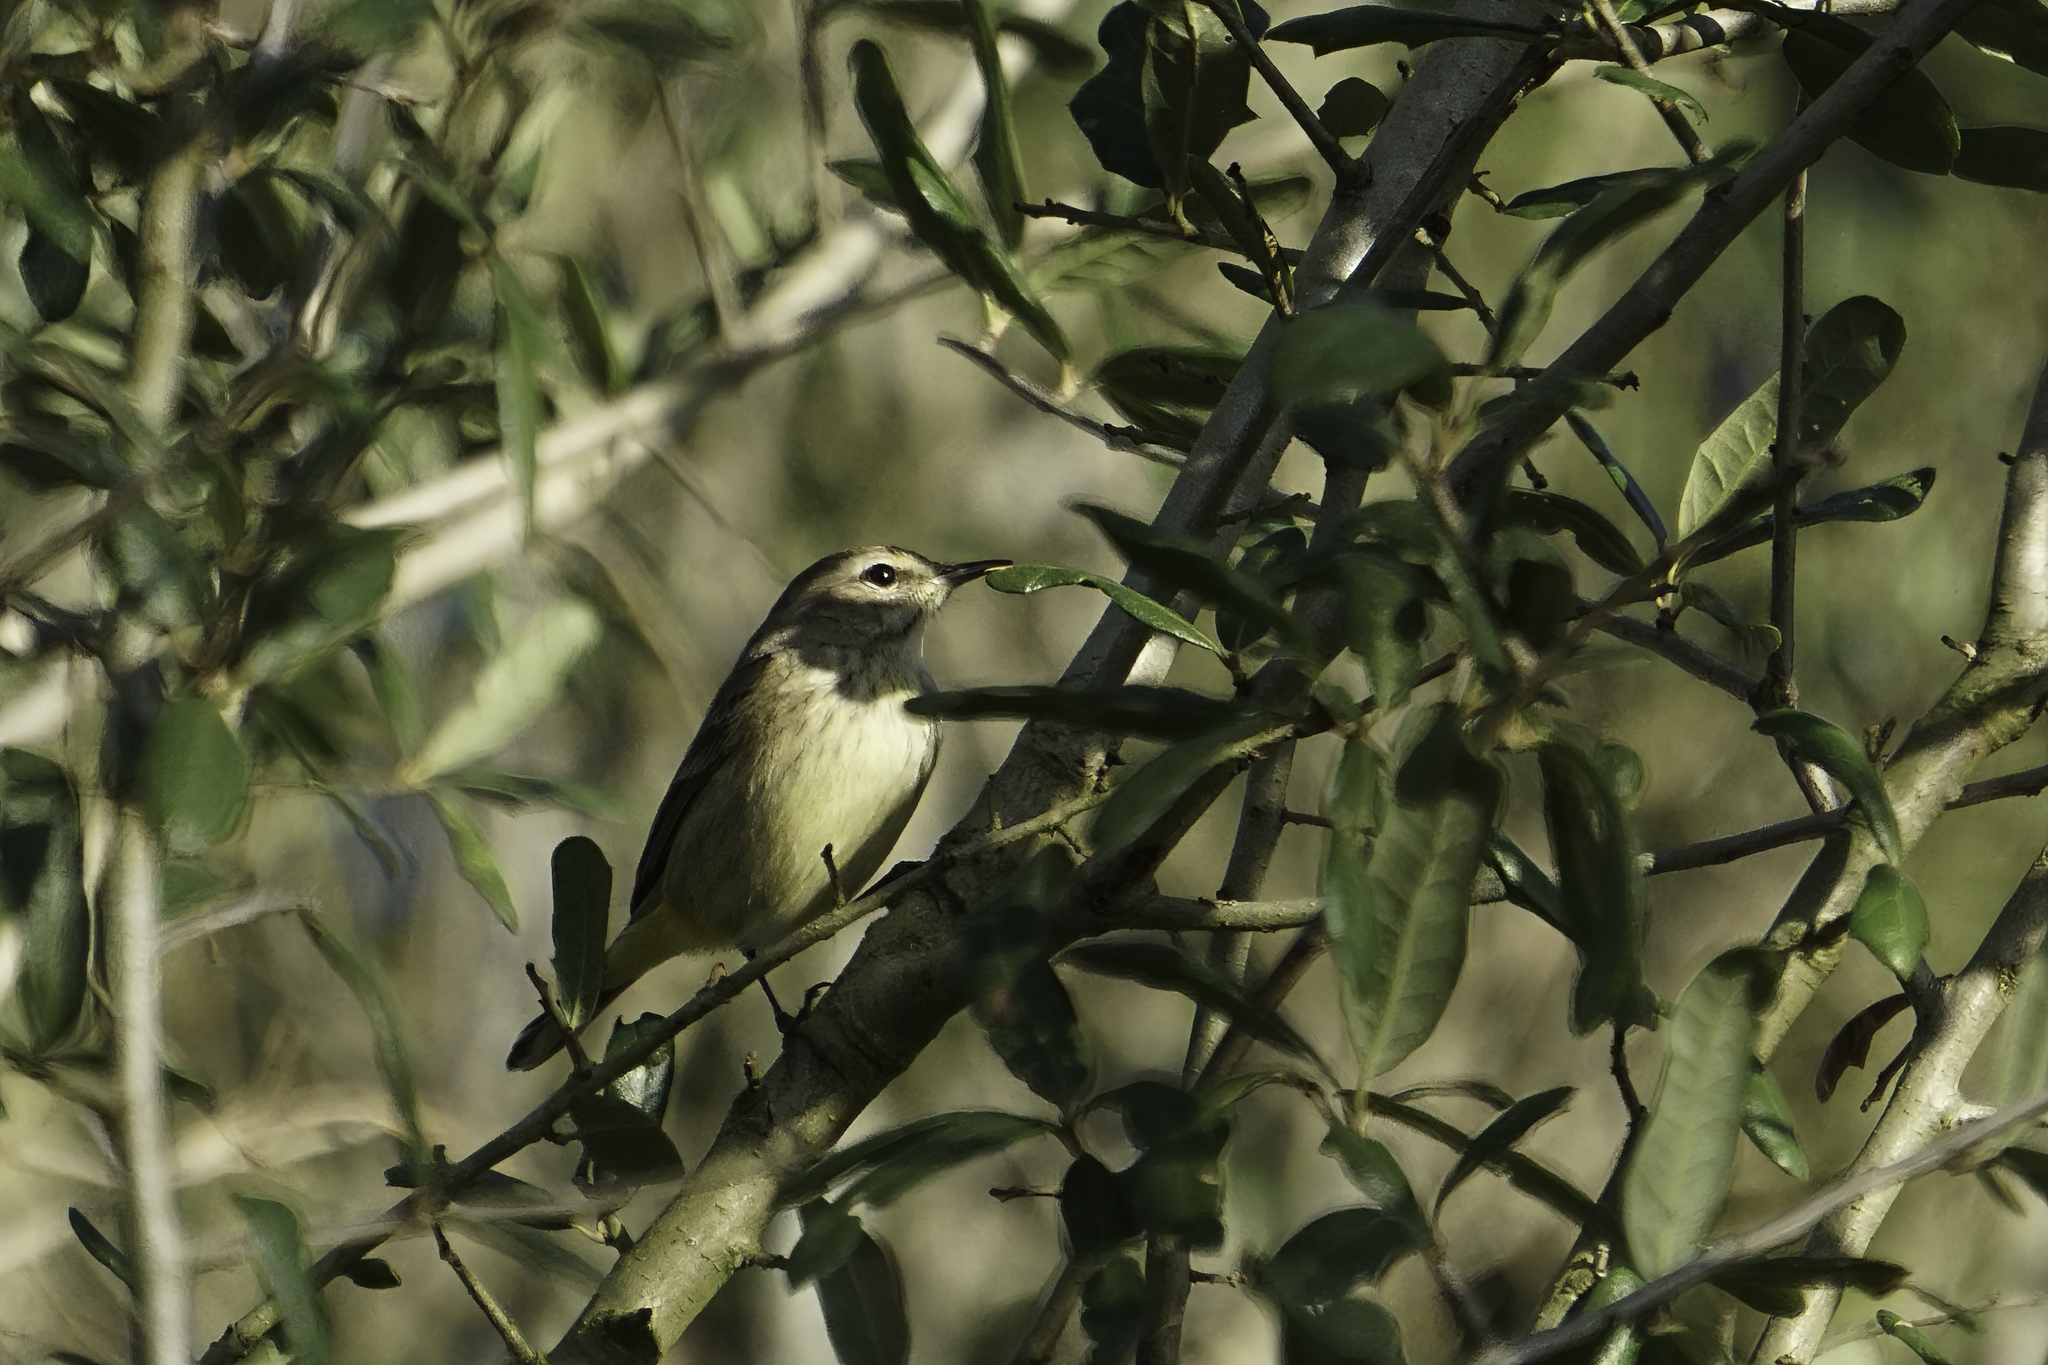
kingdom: Animalia
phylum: Chordata
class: Aves
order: Passeriformes
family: Parulidae
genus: Setophaga
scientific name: Setophaga palmarum
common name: Palm warbler
